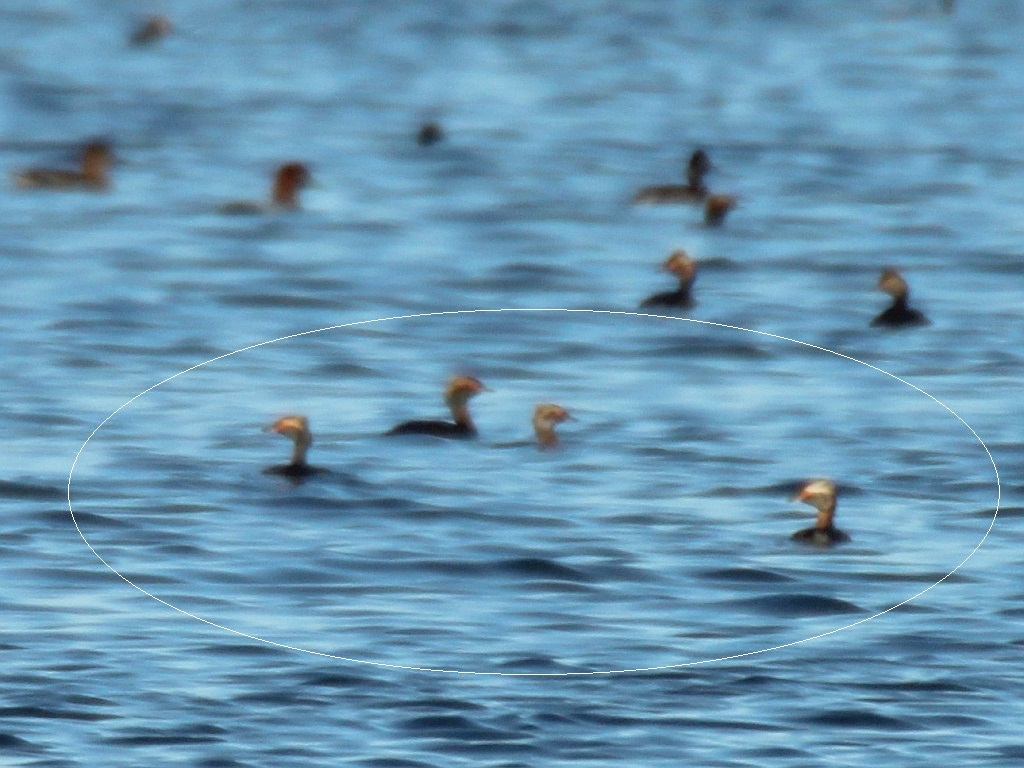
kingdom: Animalia
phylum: Chordata
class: Aves
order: Podicipediformes
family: Podicipedidae
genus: Podiceps
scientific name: Podiceps auritus
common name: Horned grebe
